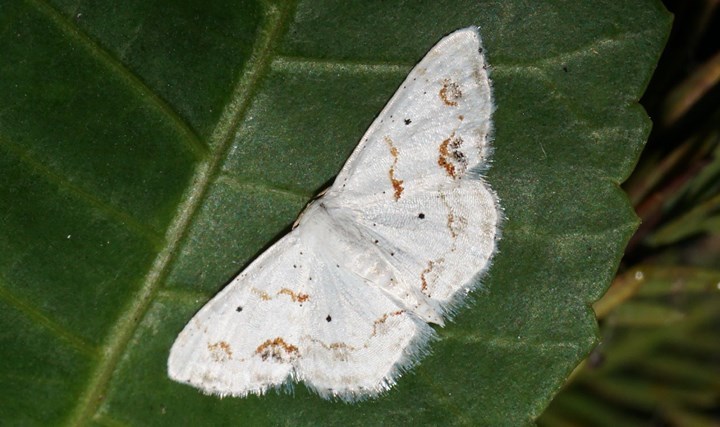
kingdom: Animalia
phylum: Arthropoda
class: Insecta
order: Lepidoptera
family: Geometridae
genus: Scopula
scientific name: Scopula lautaria
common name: Small frosted wave moth
